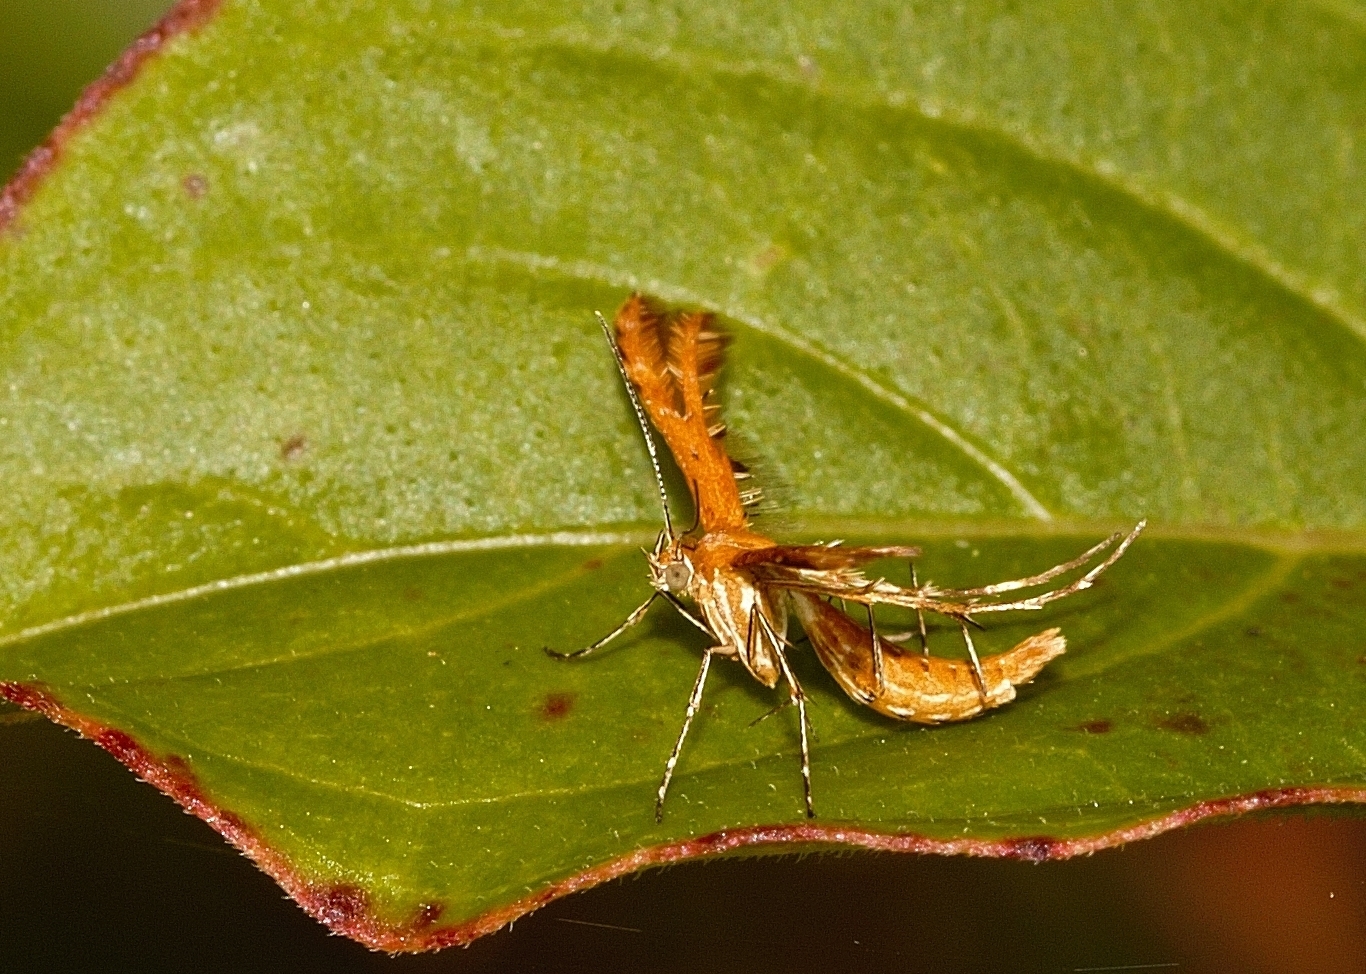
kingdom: Animalia
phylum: Arthropoda
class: Insecta
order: Lepidoptera
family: Pterophoridae
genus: Stenodacma
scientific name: Stenodacma wahlbergi
